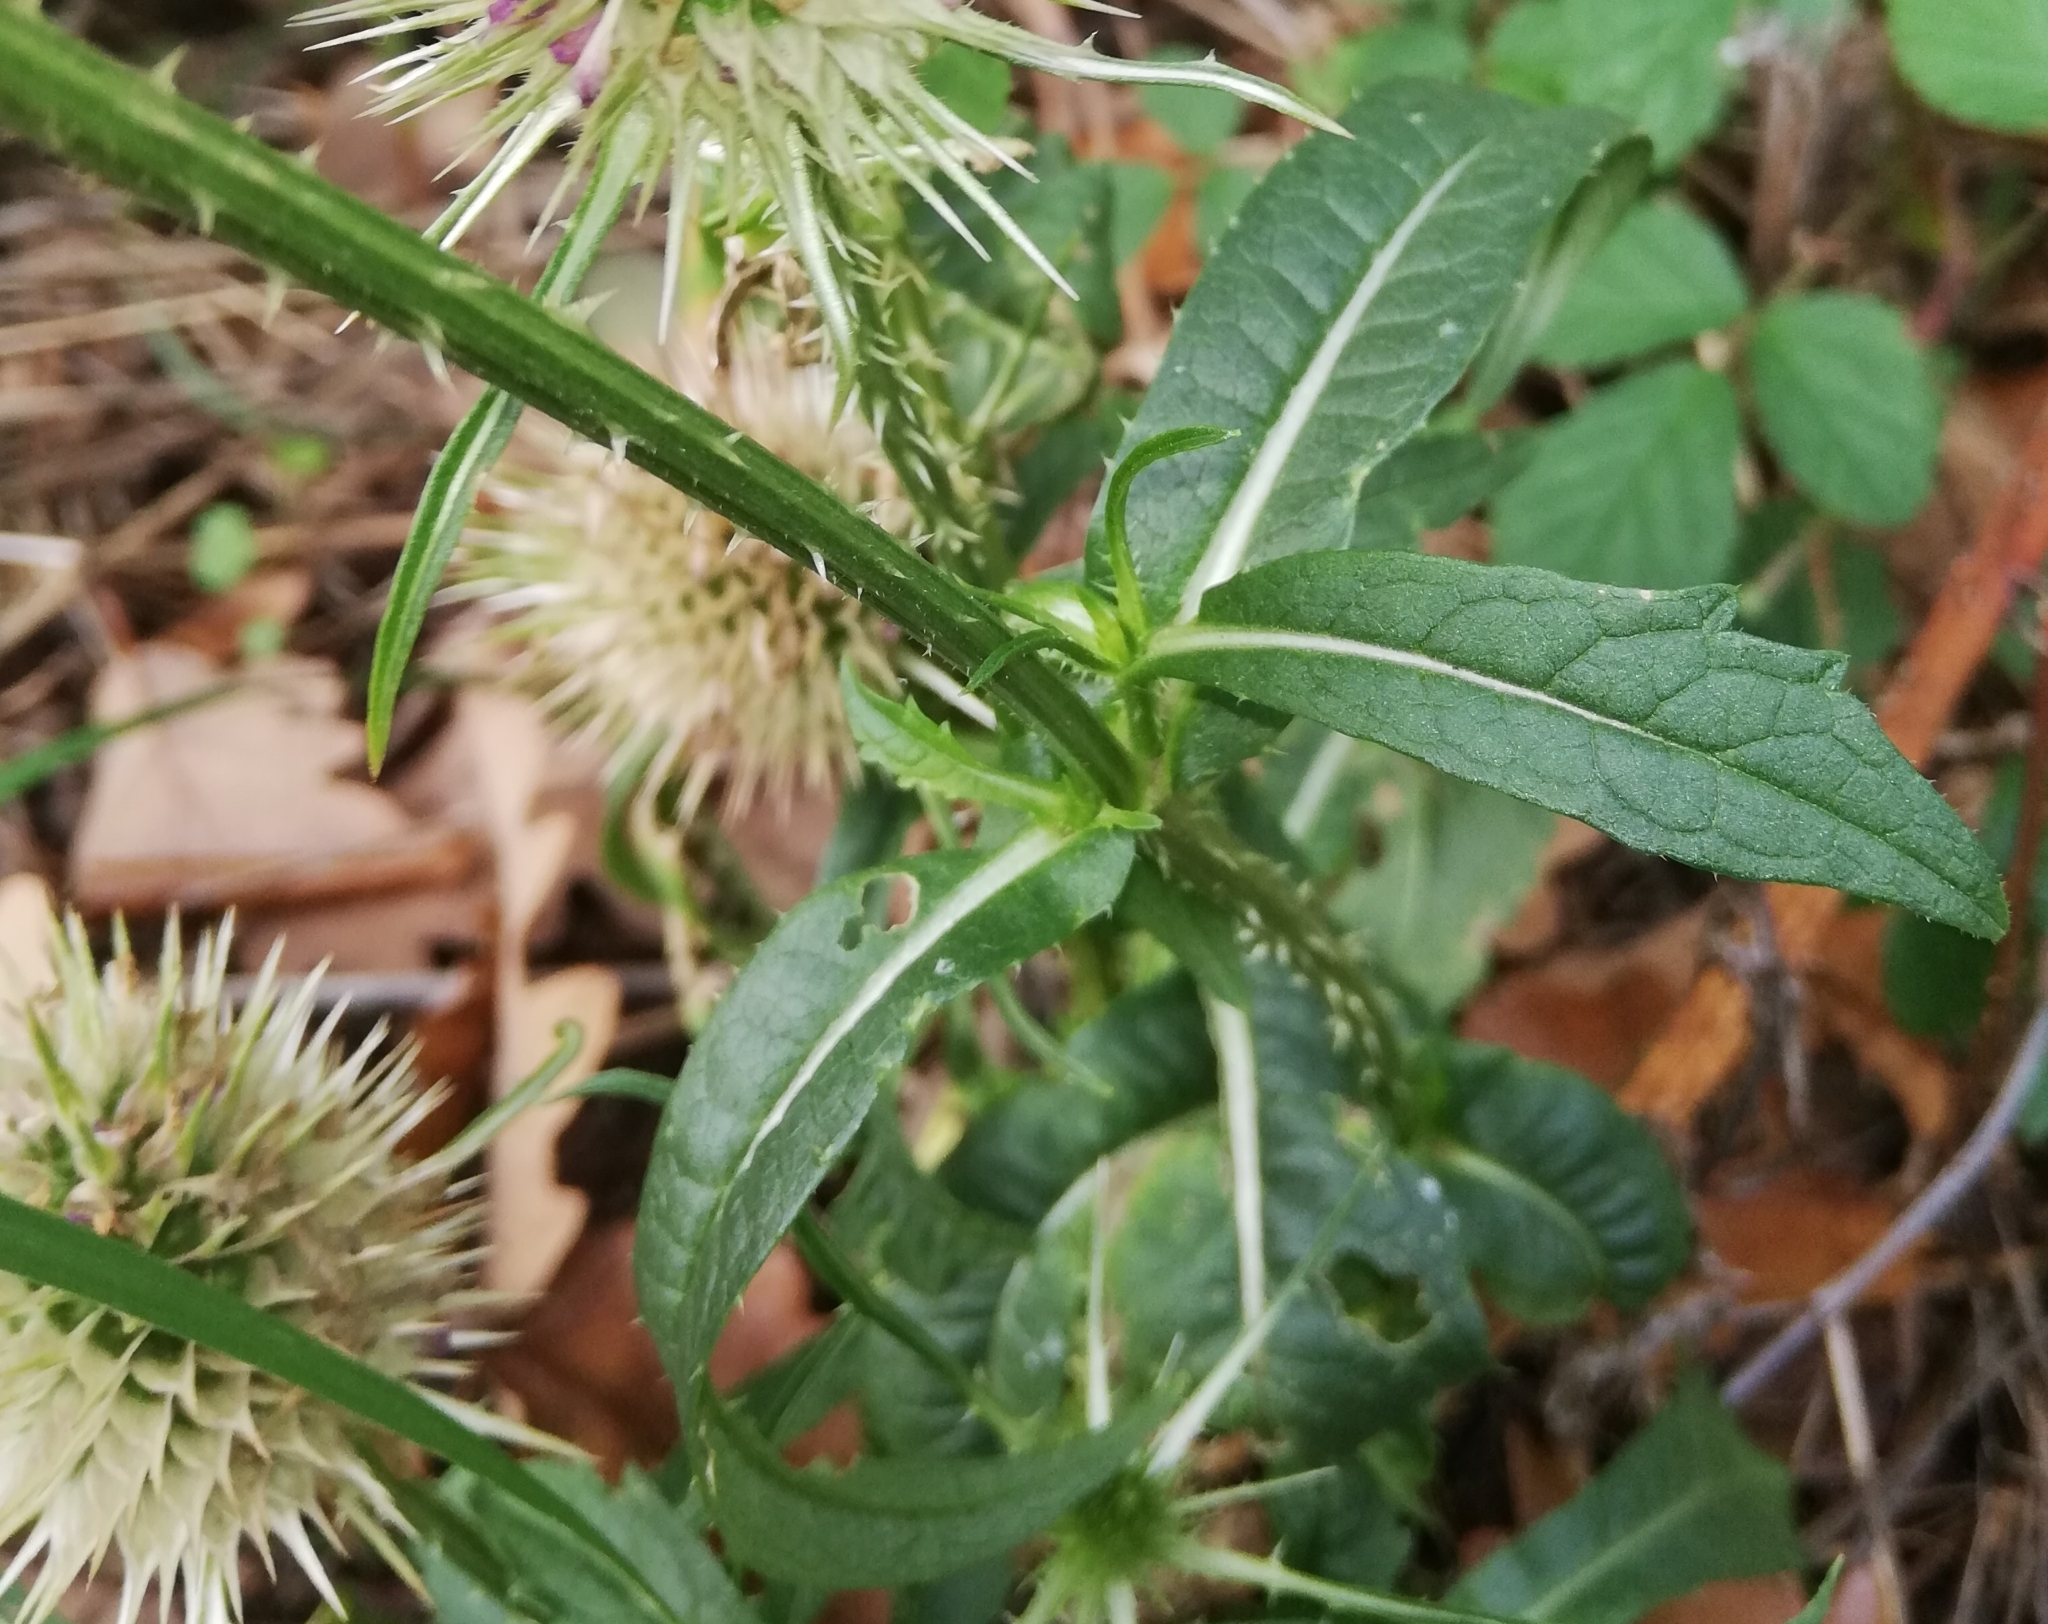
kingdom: Plantae
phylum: Tracheophyta
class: Magnoliopsida
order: Dipsacales
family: Caprifoliaceae
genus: Dipsacus
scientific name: Dipsacus fullonum
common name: Teasel
